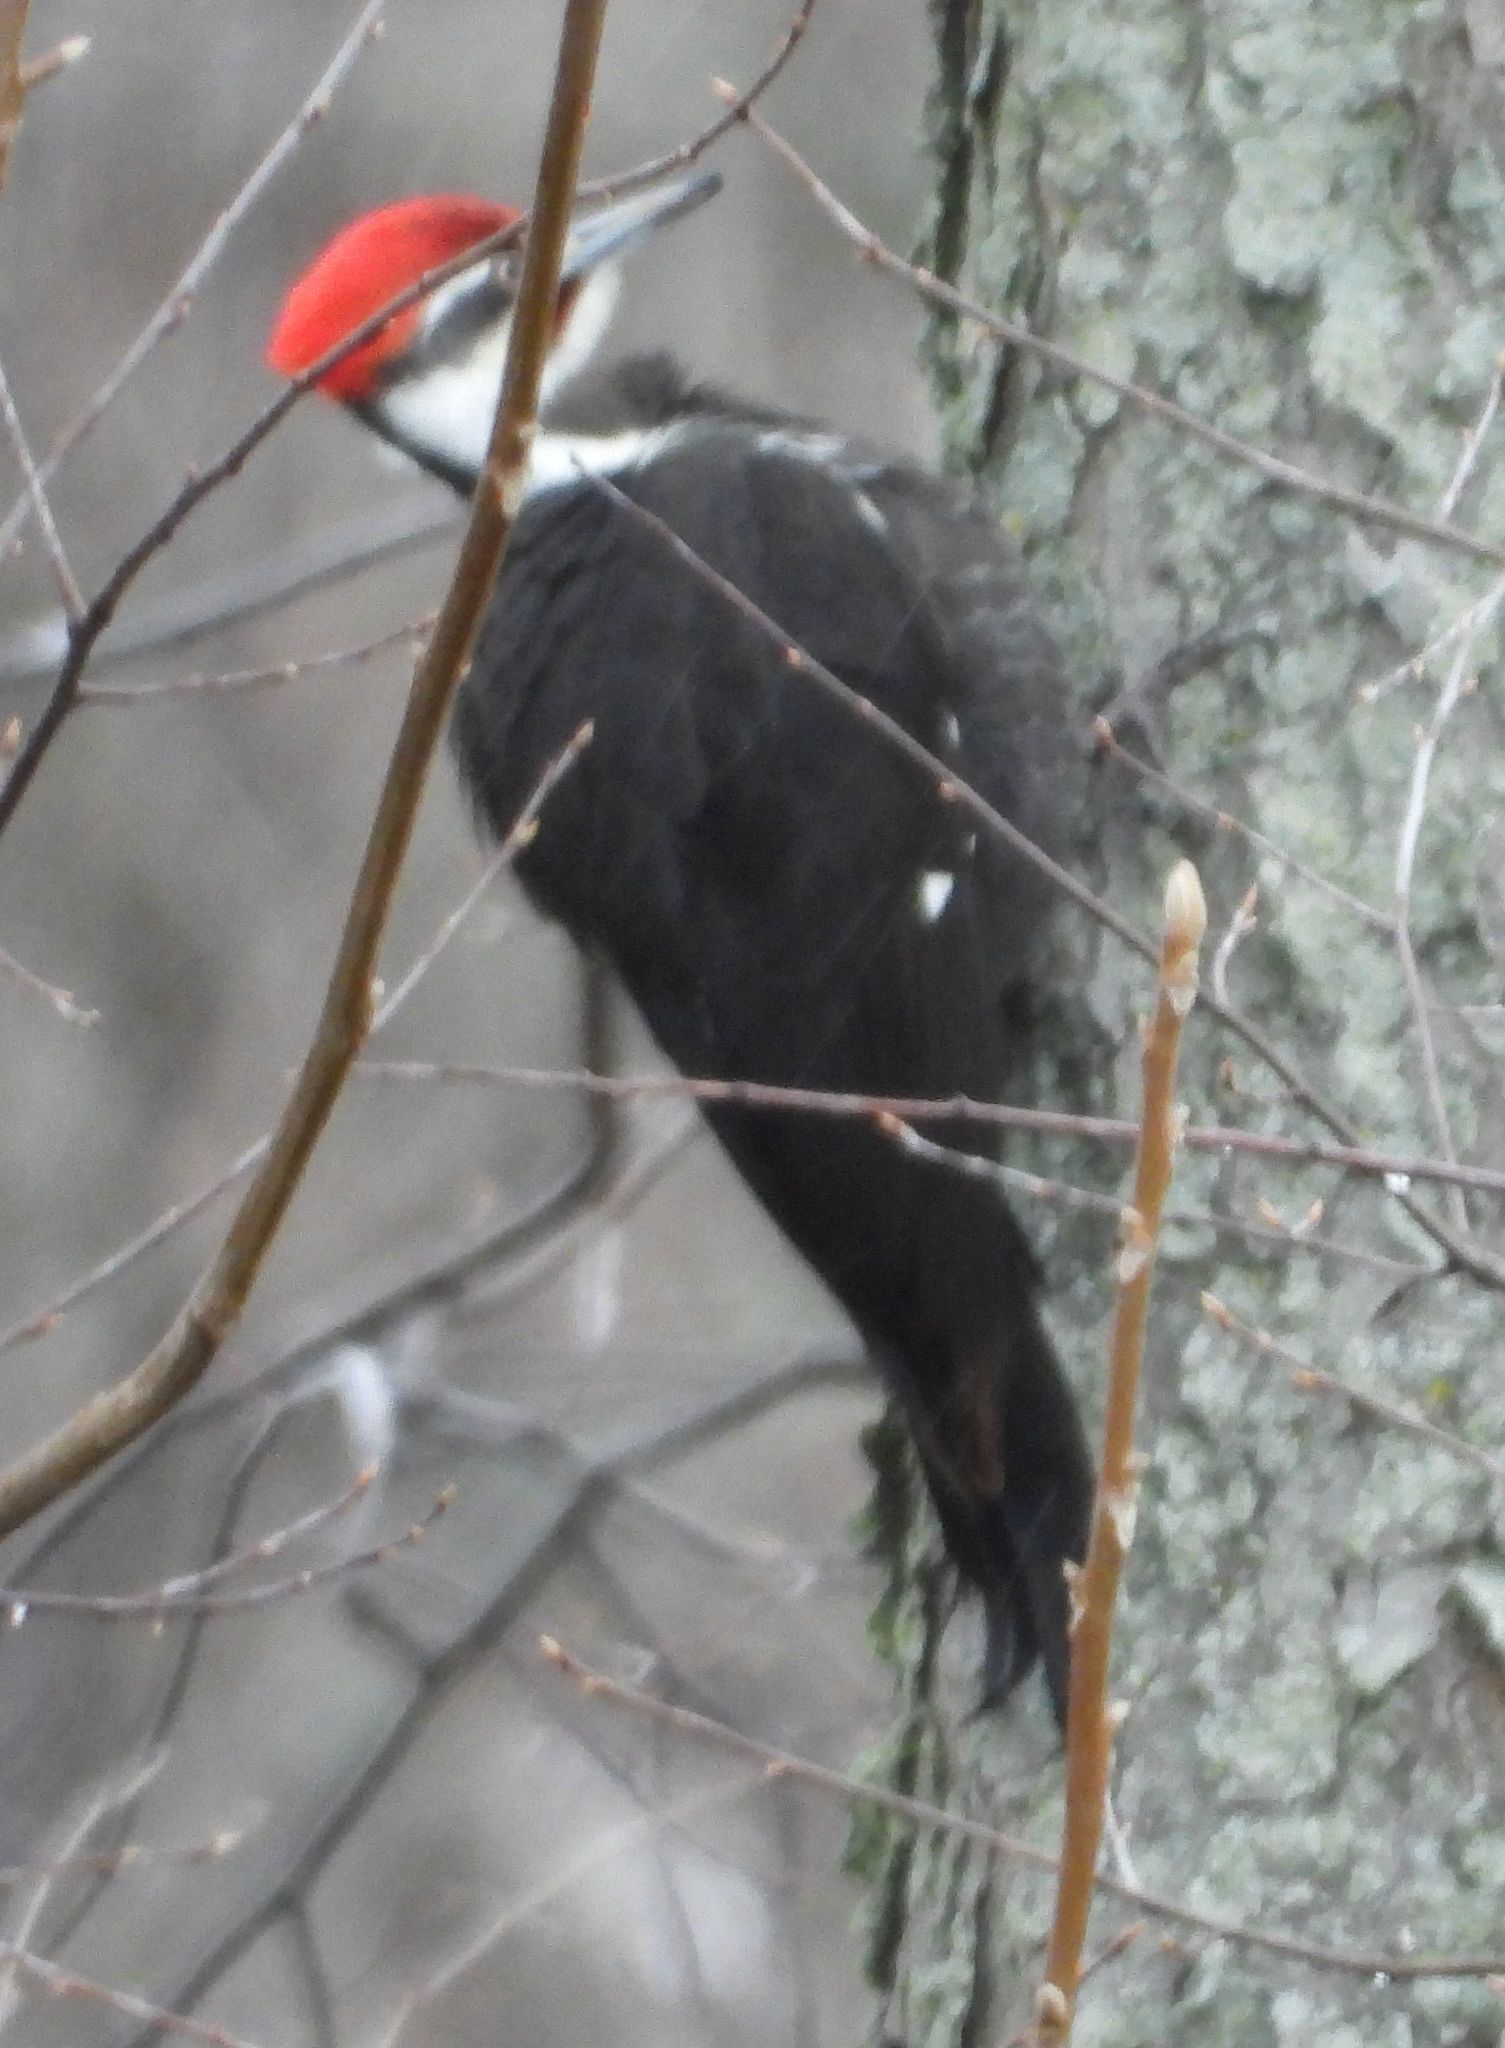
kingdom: Animalia
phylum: Chordata
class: Aves
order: Piciformes
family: Picidae
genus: Dryocopus
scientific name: Dryocopus pileatus
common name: Pileated woodpecker
